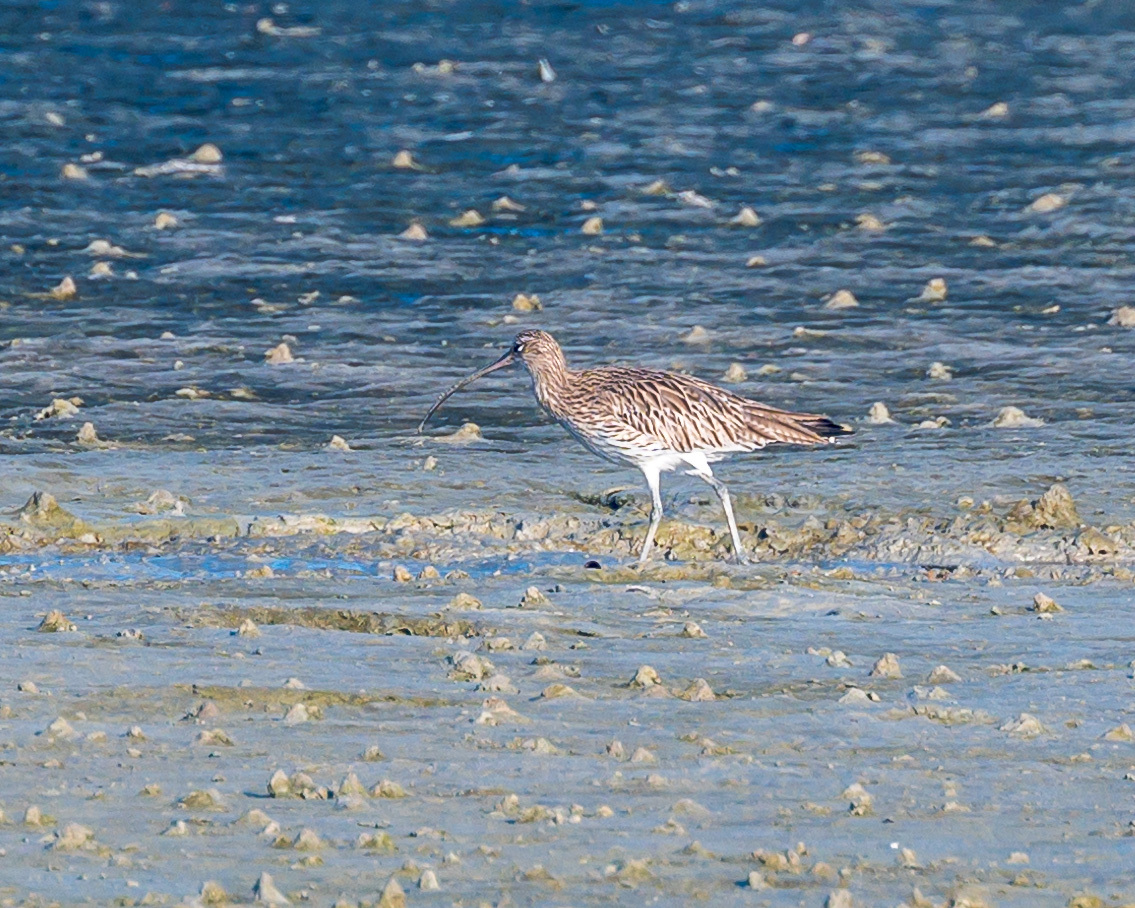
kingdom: Animalia
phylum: Chordata
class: Aves
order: Charadriiformes
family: Scolopacidae
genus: Numenius
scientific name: Numenius arquata
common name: Eurasian curlew
